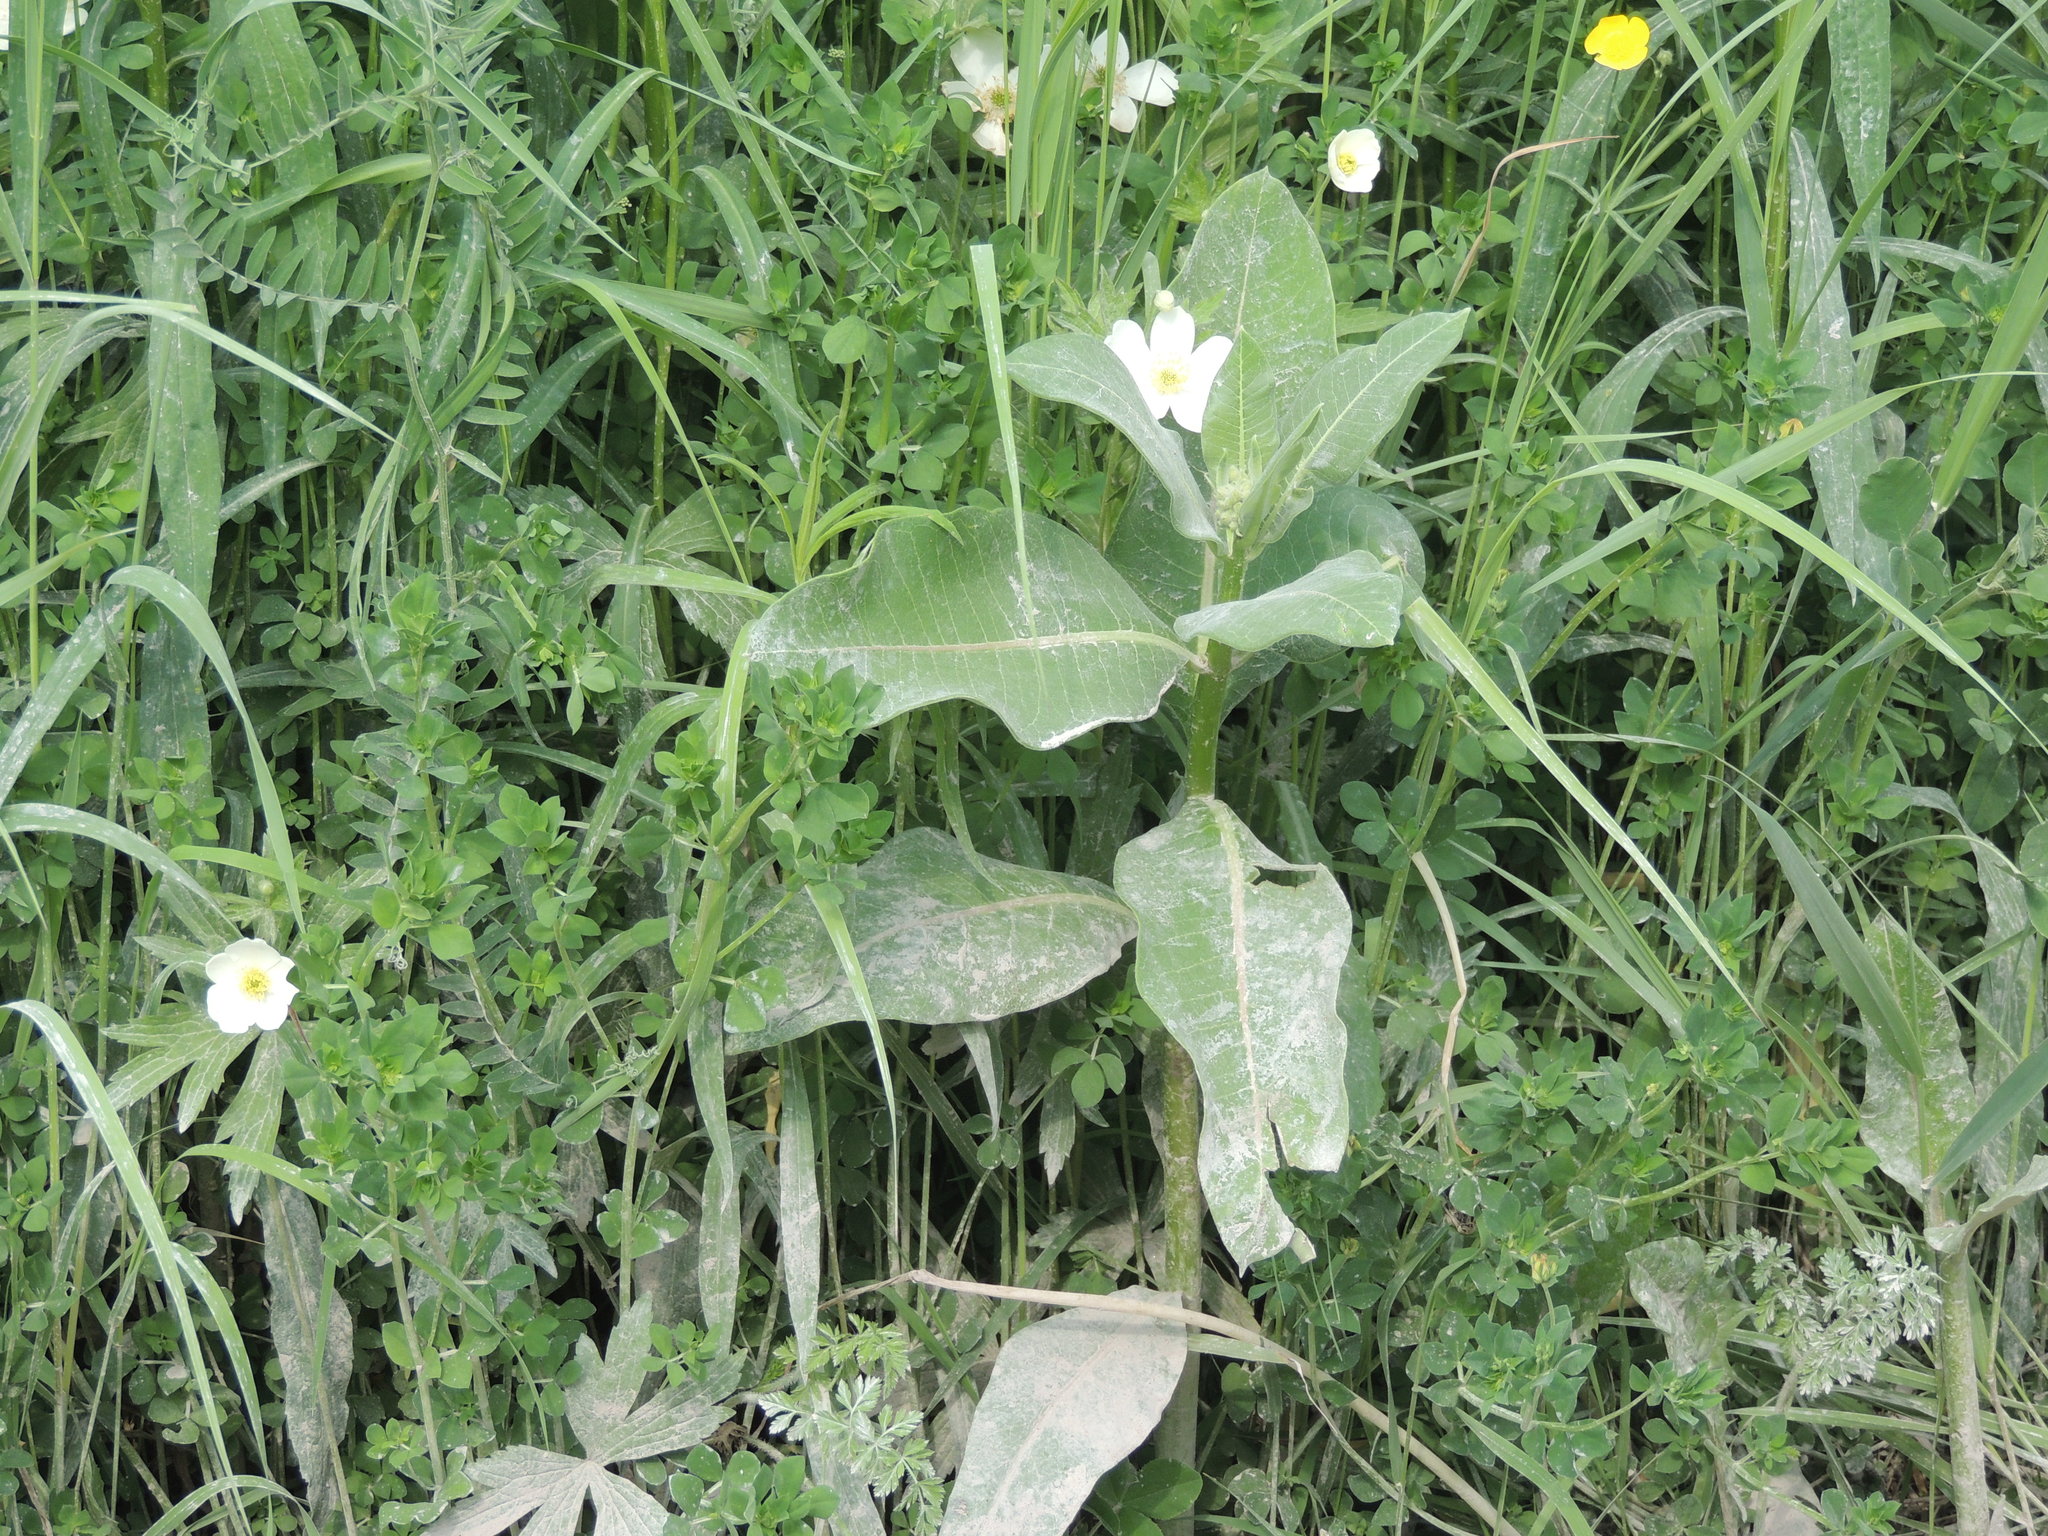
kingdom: Plantae
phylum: Tracheophyta
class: Magnoliopsida
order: Gentianales
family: Apocynaceae
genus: Asclepias
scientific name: Asclepias syriaca
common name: Common milkweed
